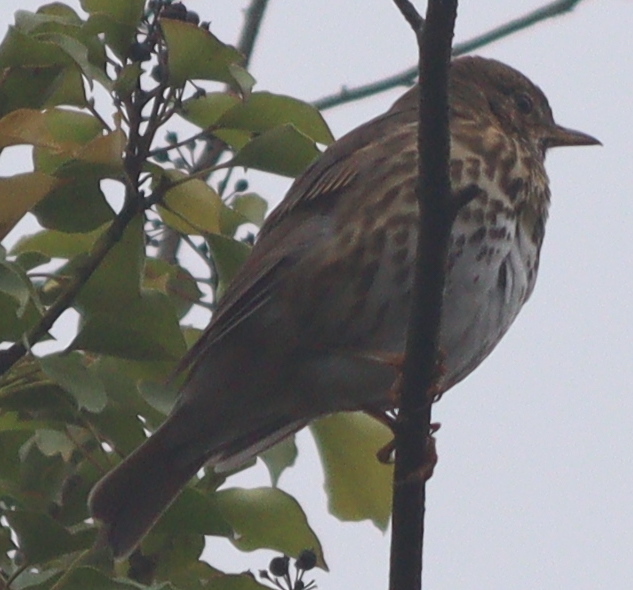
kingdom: Animalia
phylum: Chordata
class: Aves
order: Passeriformes
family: Turdidae
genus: Turdus
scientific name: Turdus philomelos
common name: Song thrush
